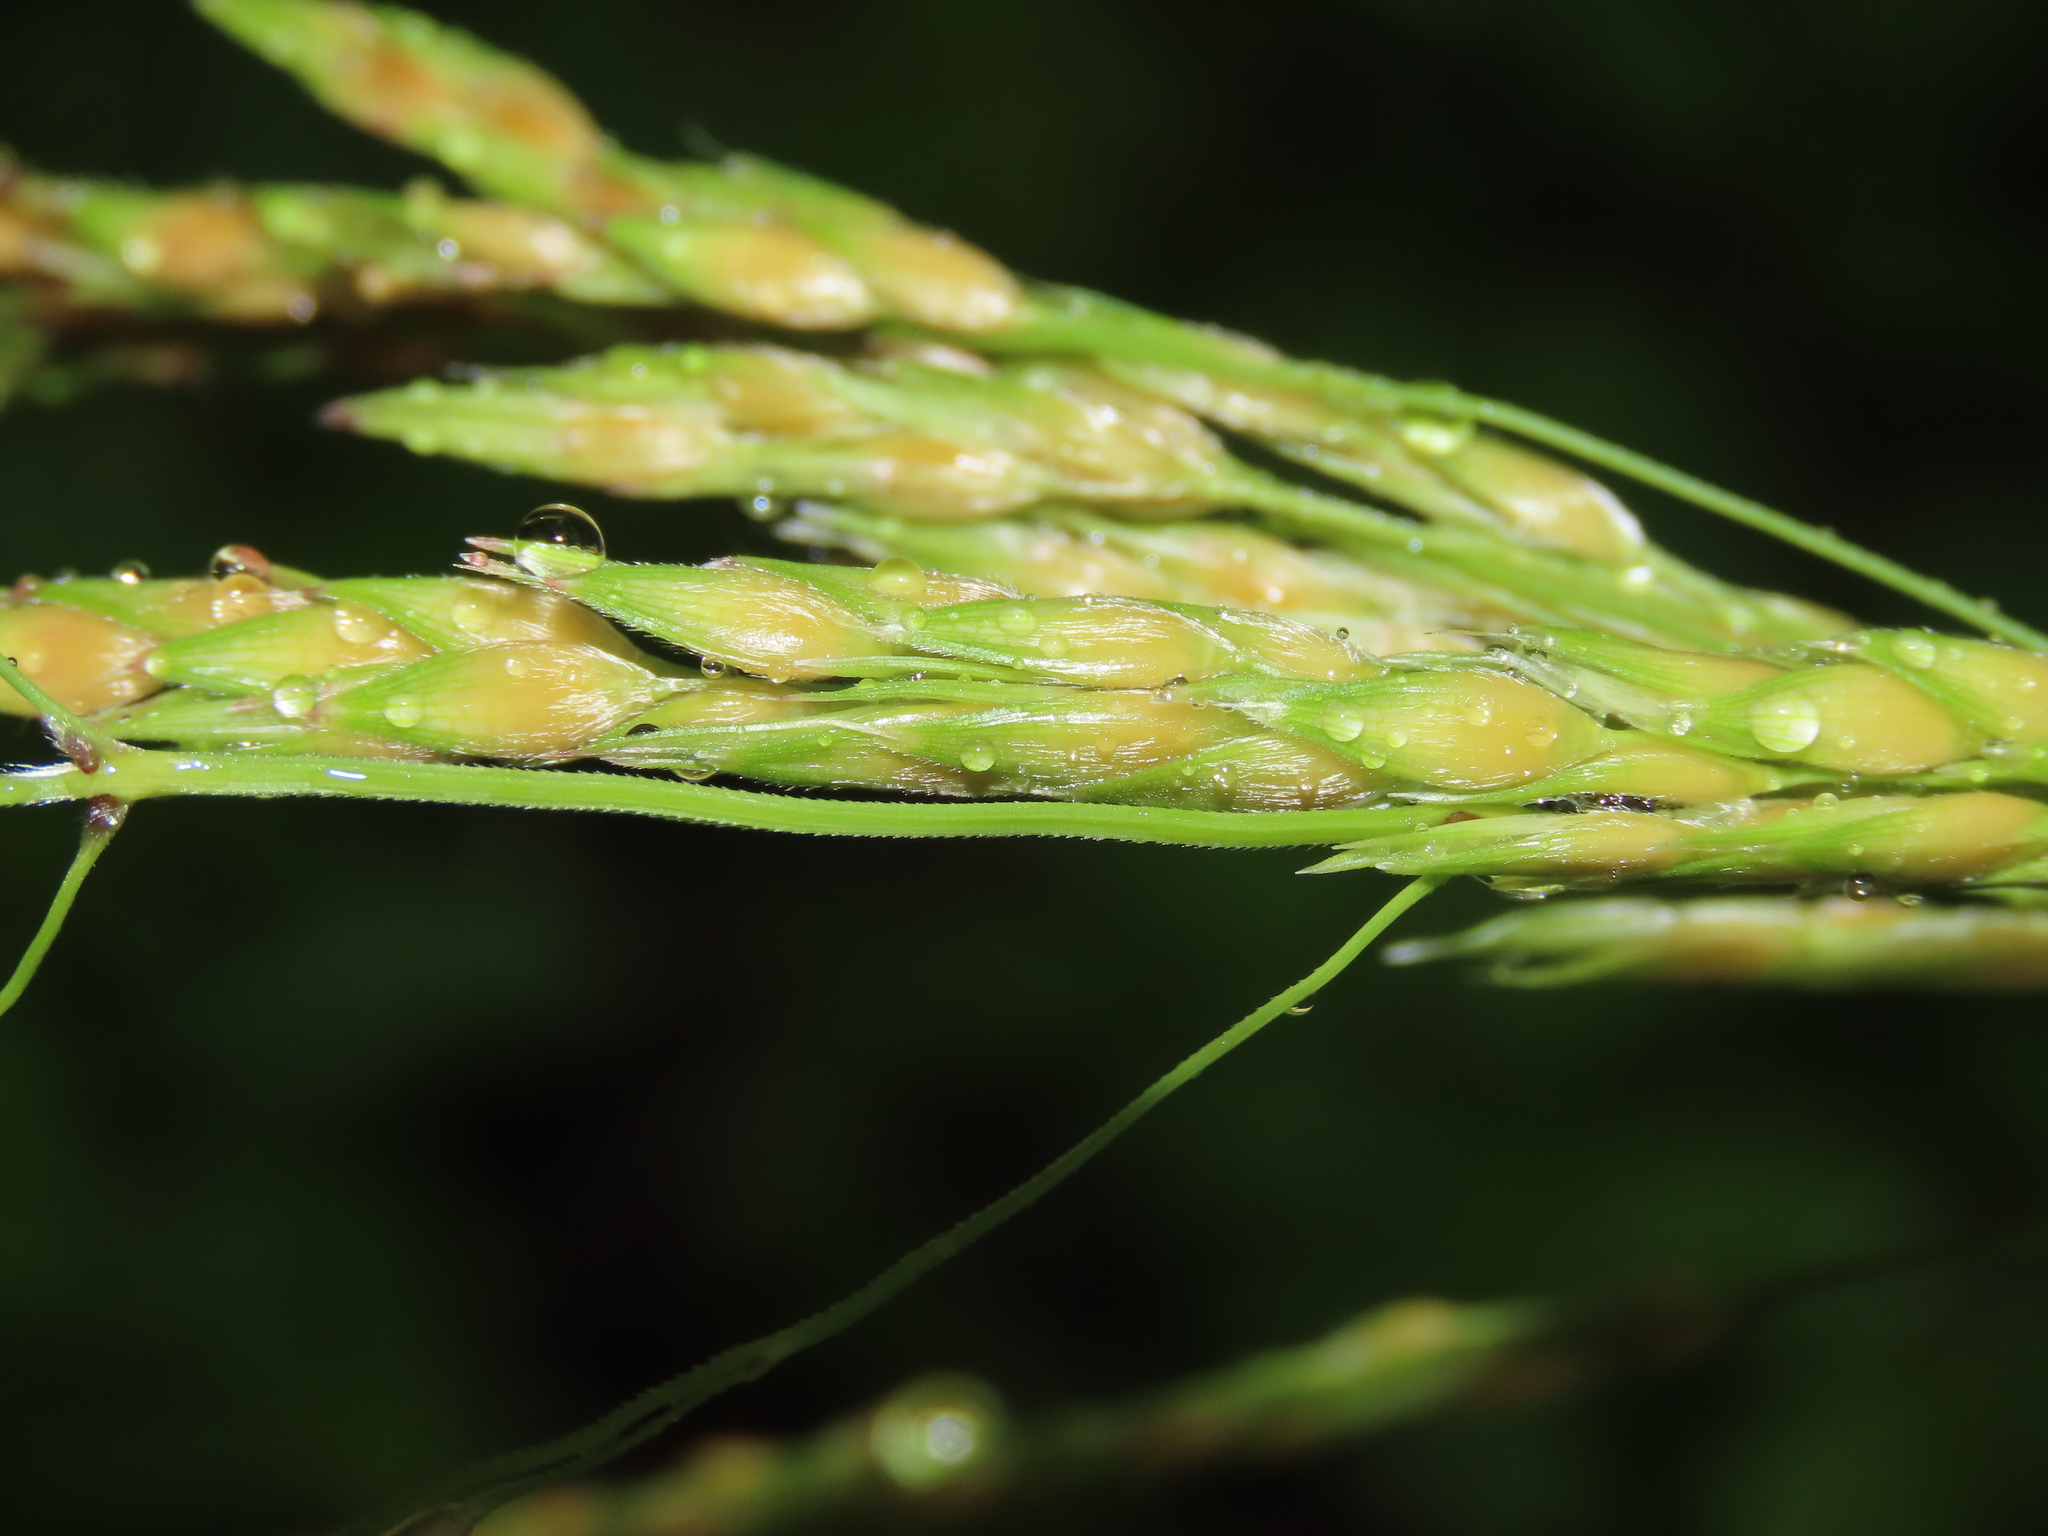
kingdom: Plantae
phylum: Tracheophyta
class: Liliopsida
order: Poales
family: Poaceae
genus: Sorghum
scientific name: Sorghum arundinaceum
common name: Sorghum
